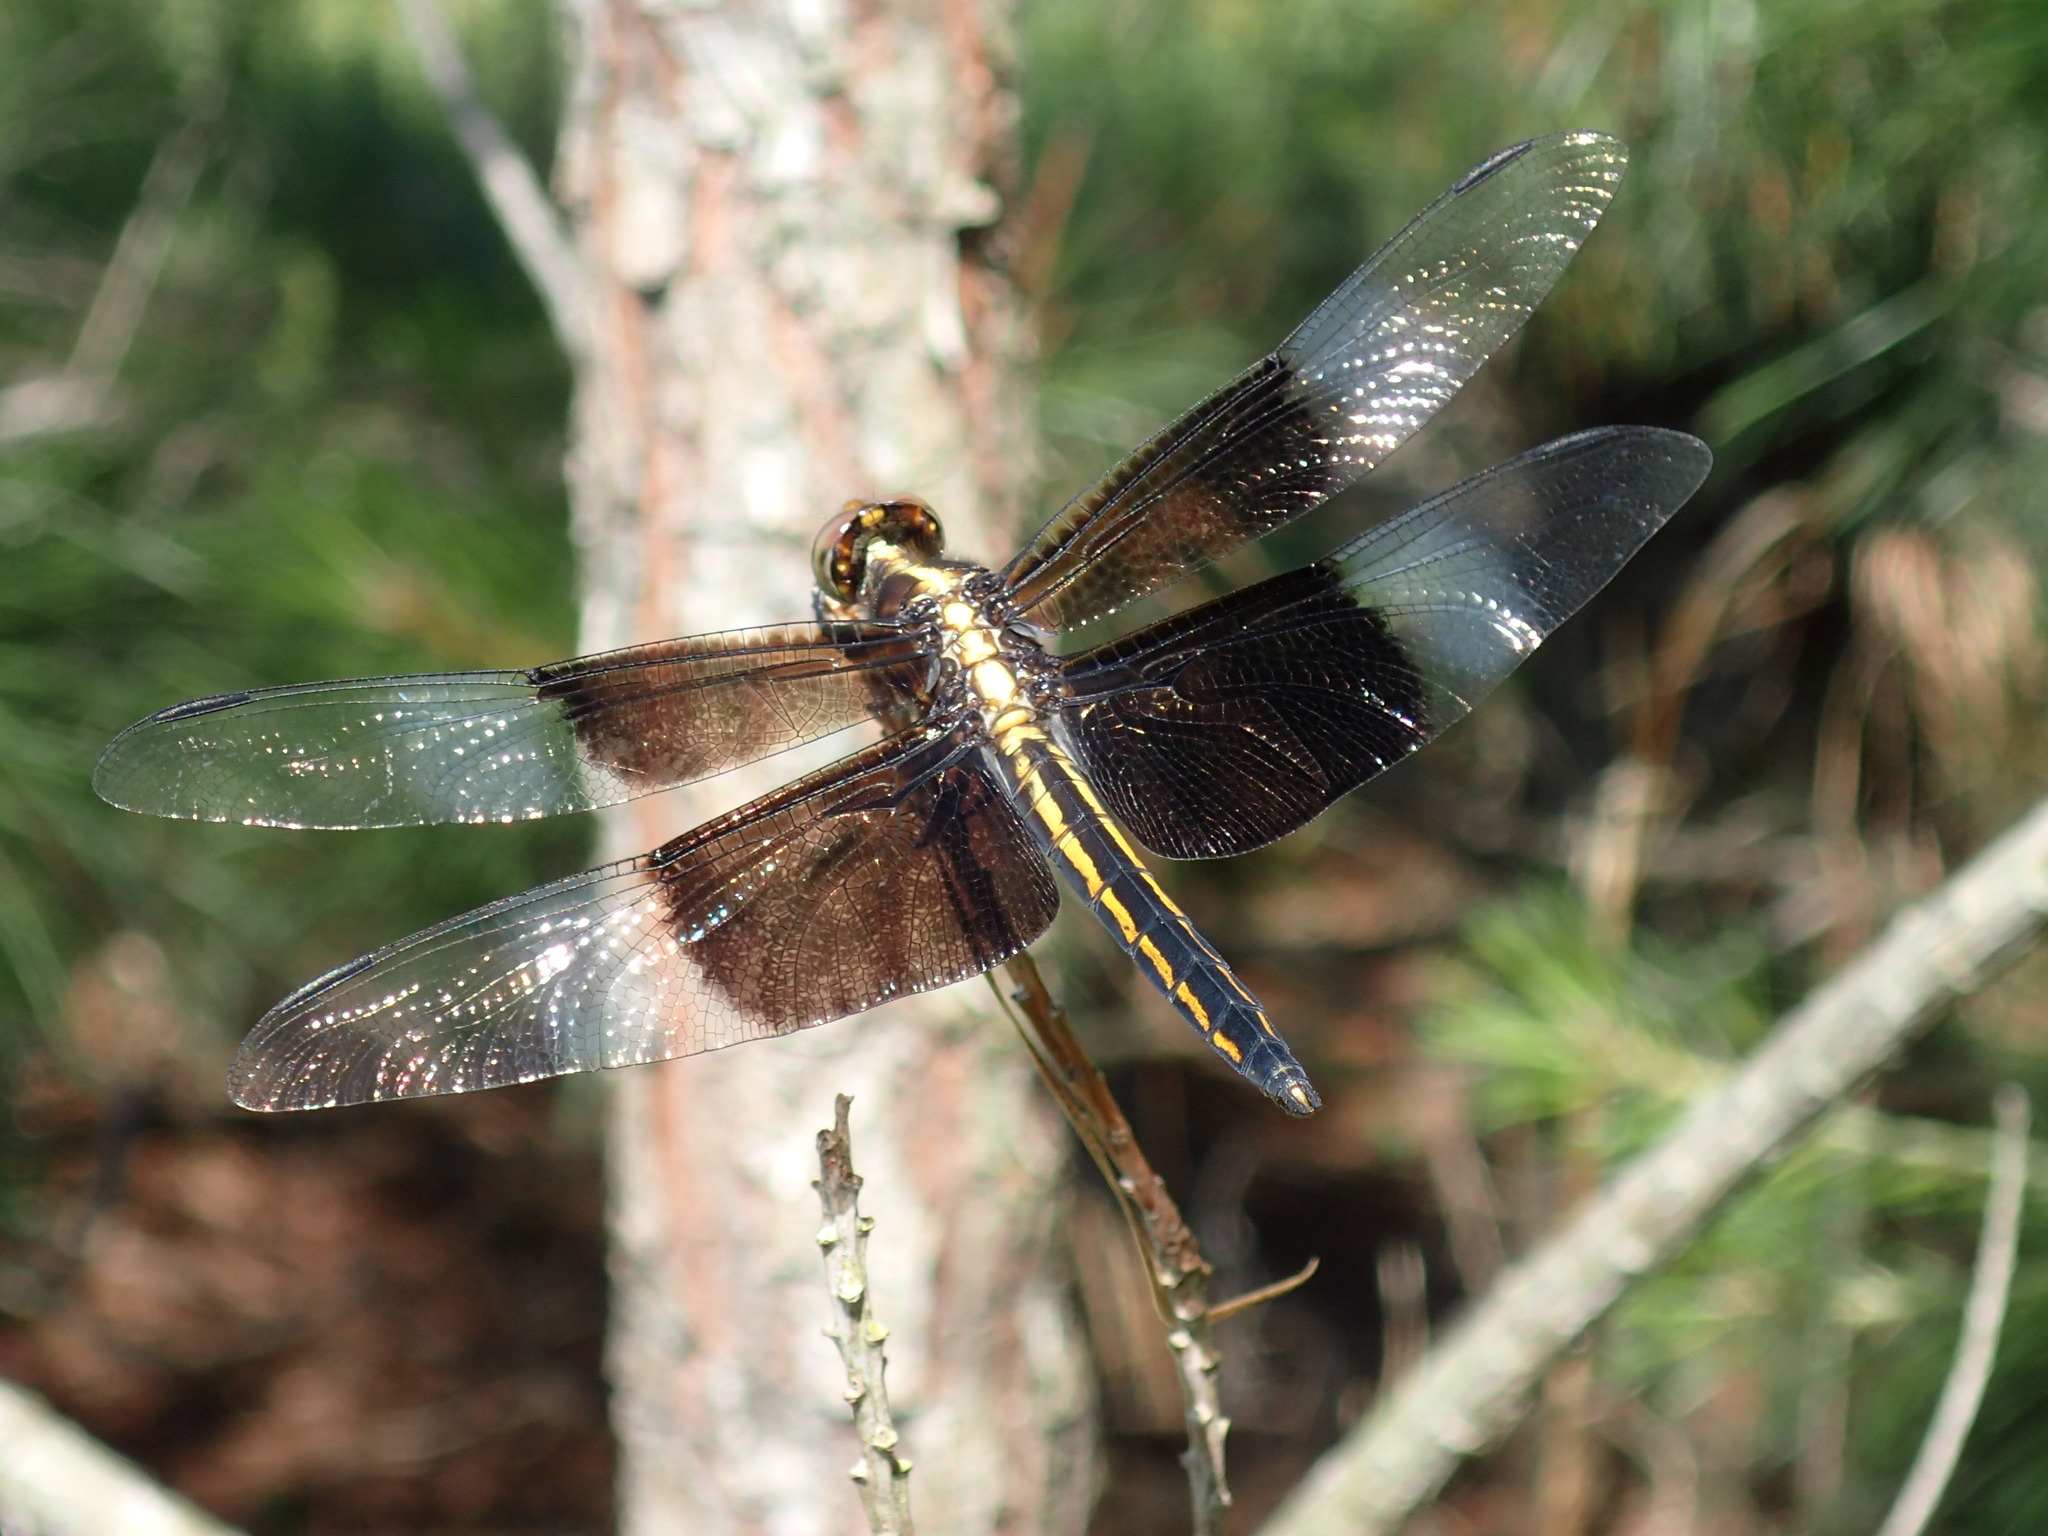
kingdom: Animalia
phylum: Arthropoda
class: Insecta
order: Odonata
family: Libellulidae
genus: Libellula
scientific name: Libellula luctuosa
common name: Widow skimmer
